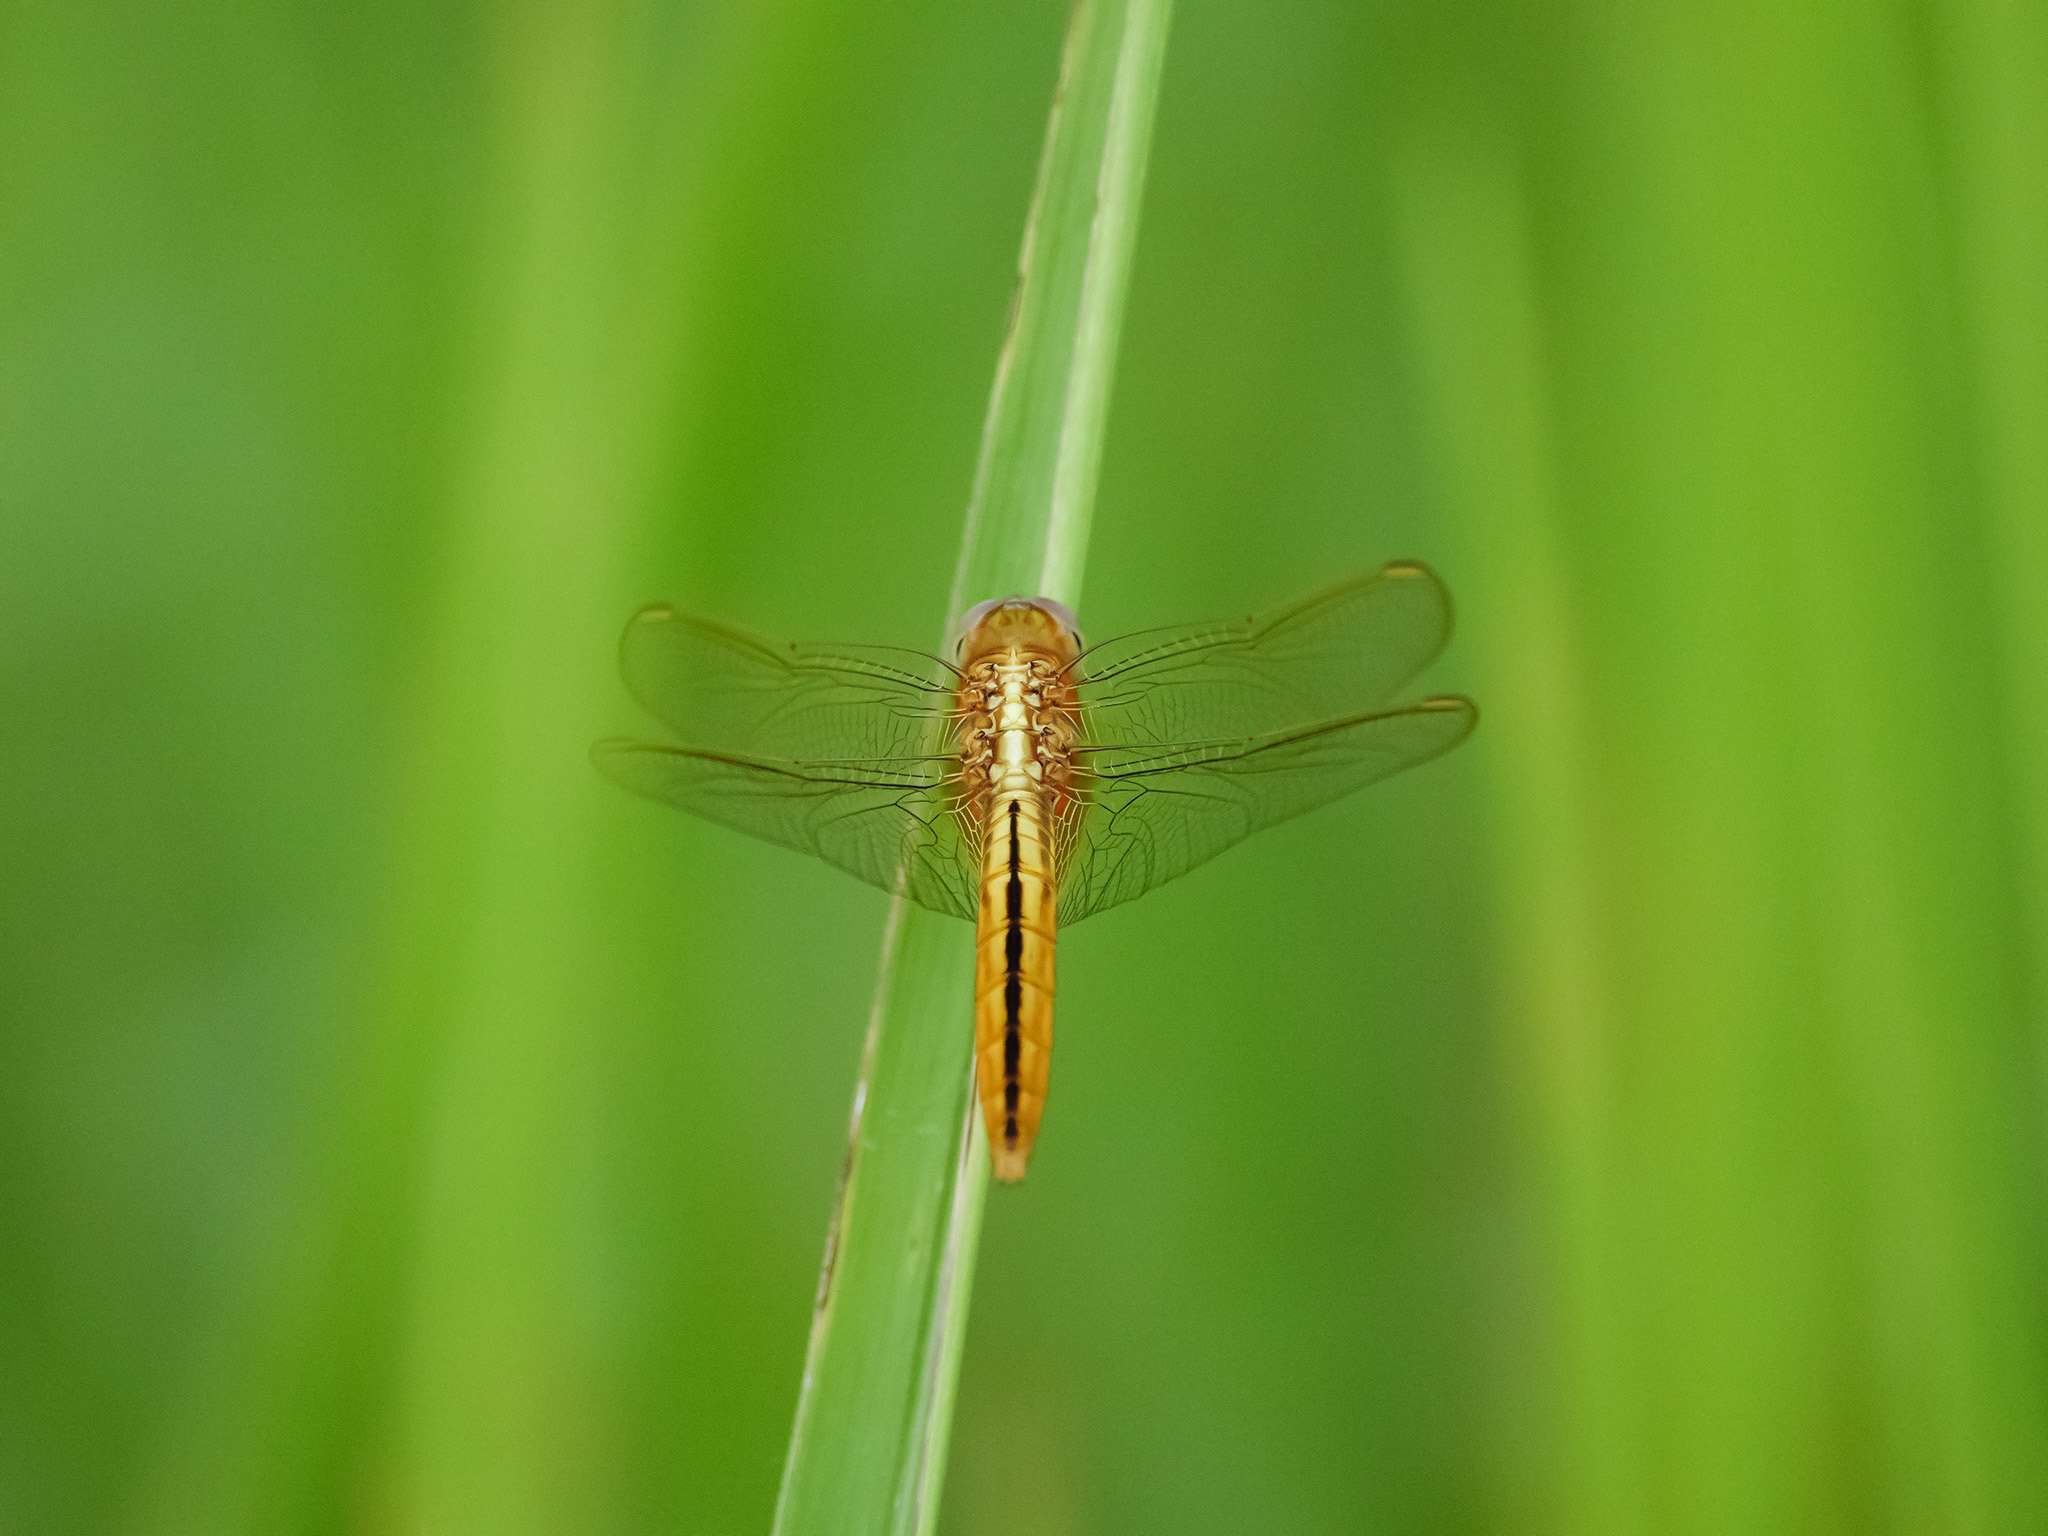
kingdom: Animalia
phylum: Arthropoda
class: Insecta
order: Odonata
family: Libellulidae
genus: Crocothemis
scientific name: Crocothemis servilia
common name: Scarlet skimmer
